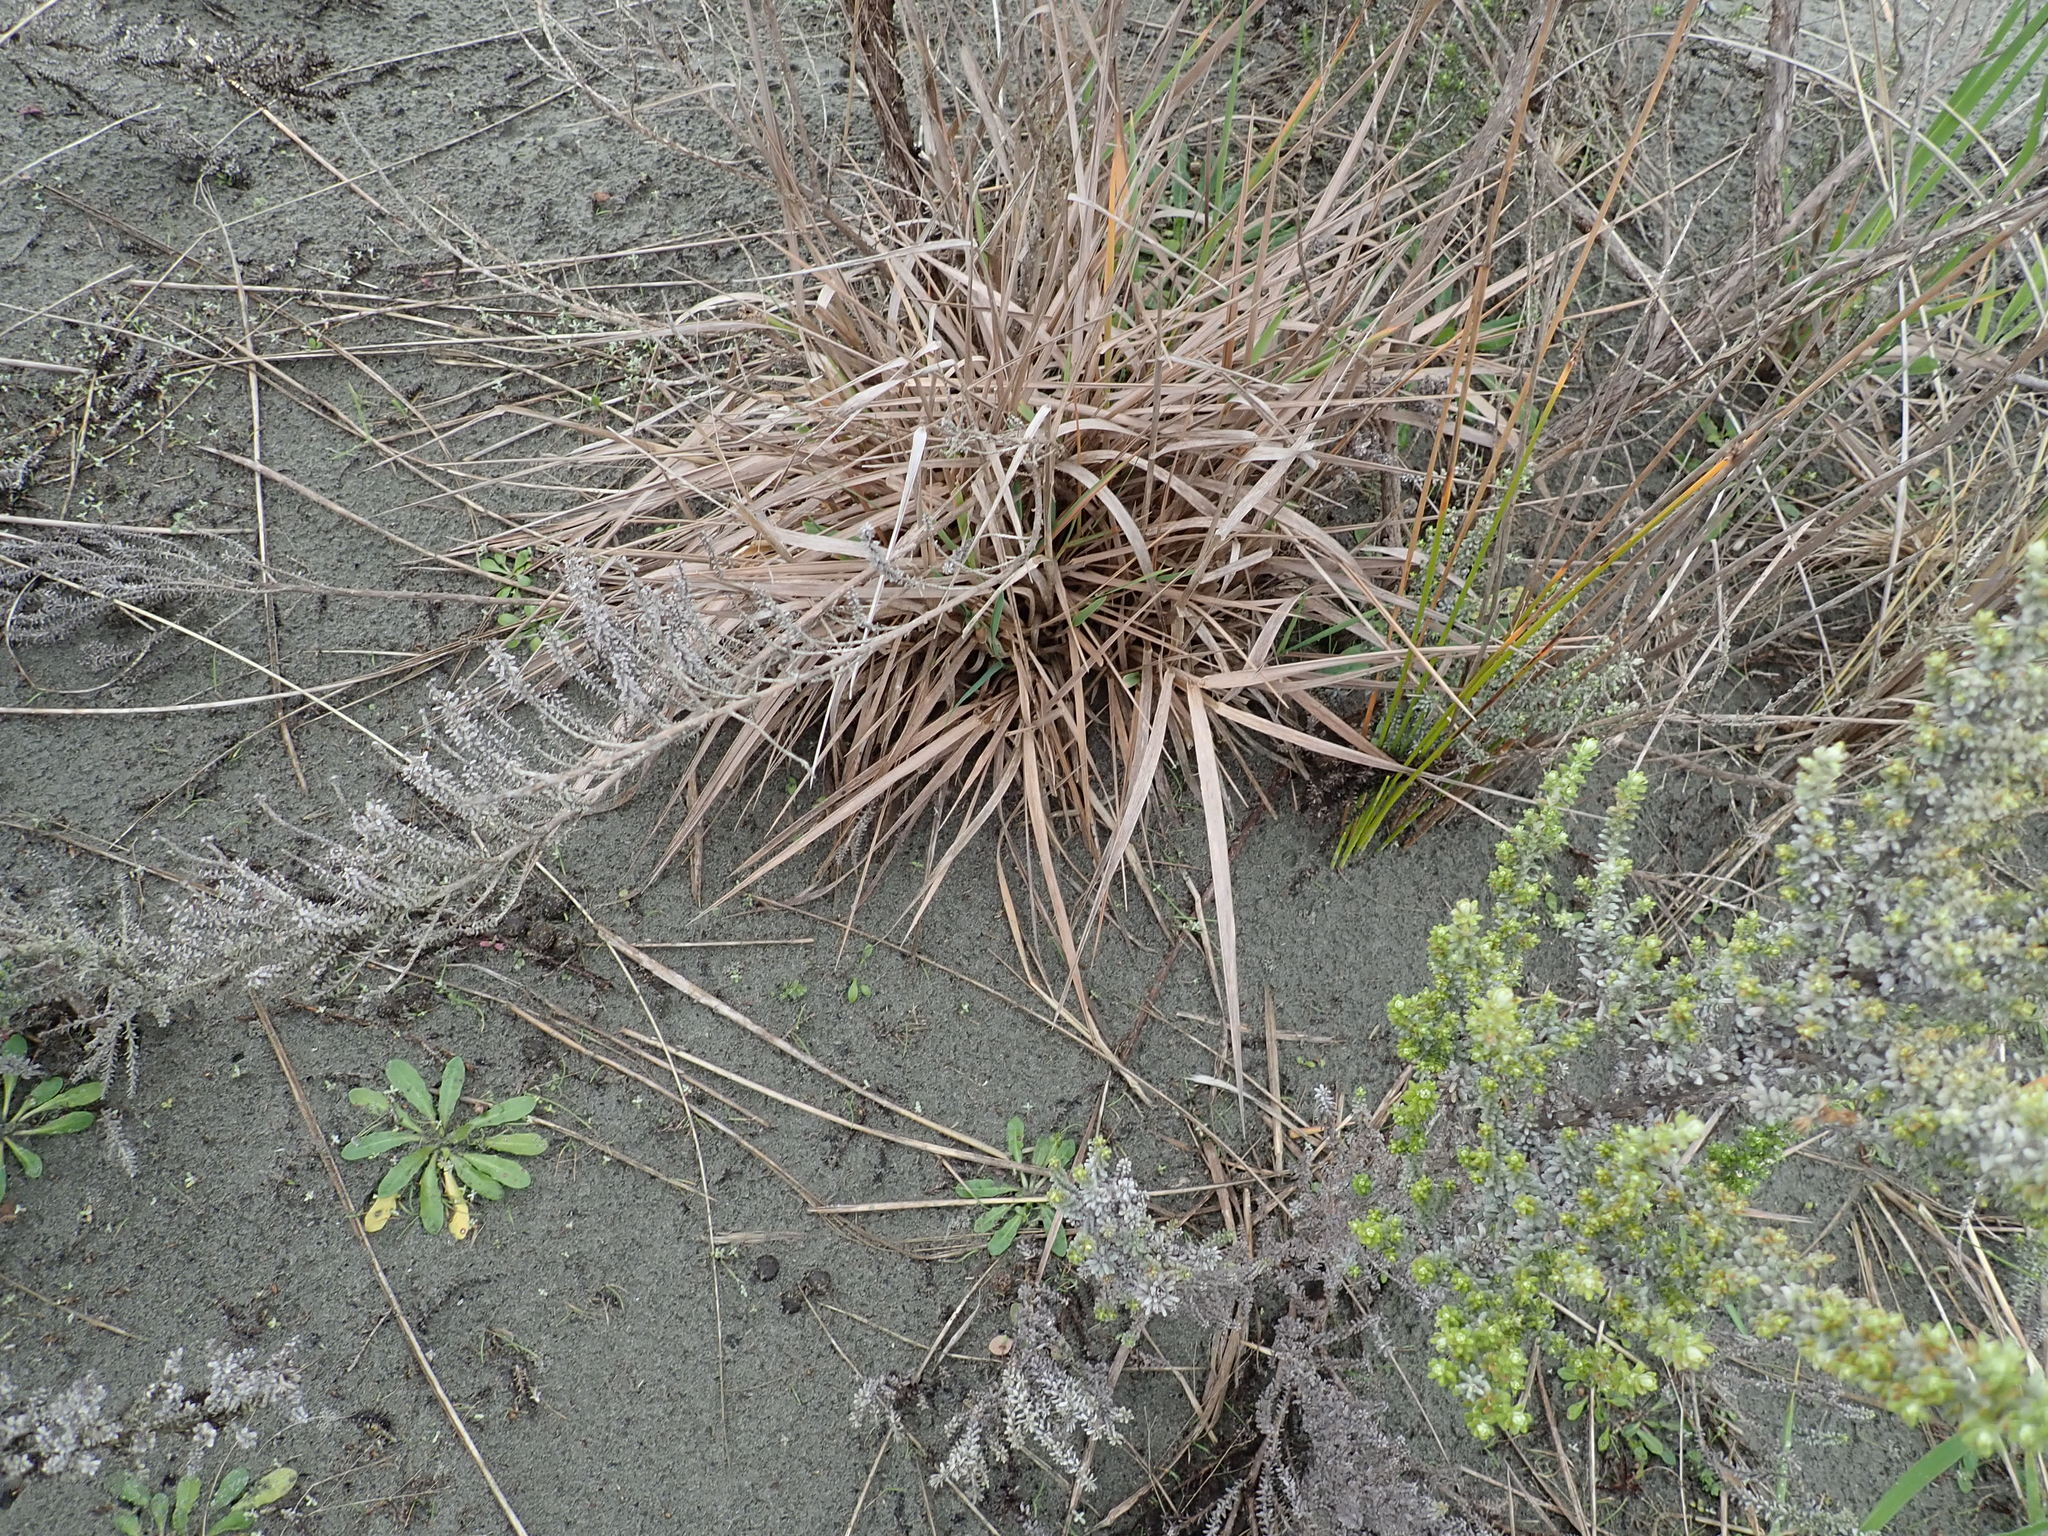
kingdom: Plantae
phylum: Tracheophyta
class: Liliopsida
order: Poales
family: Poaceae
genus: Lachnagrostis
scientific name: Lachnagrostis billardierei
